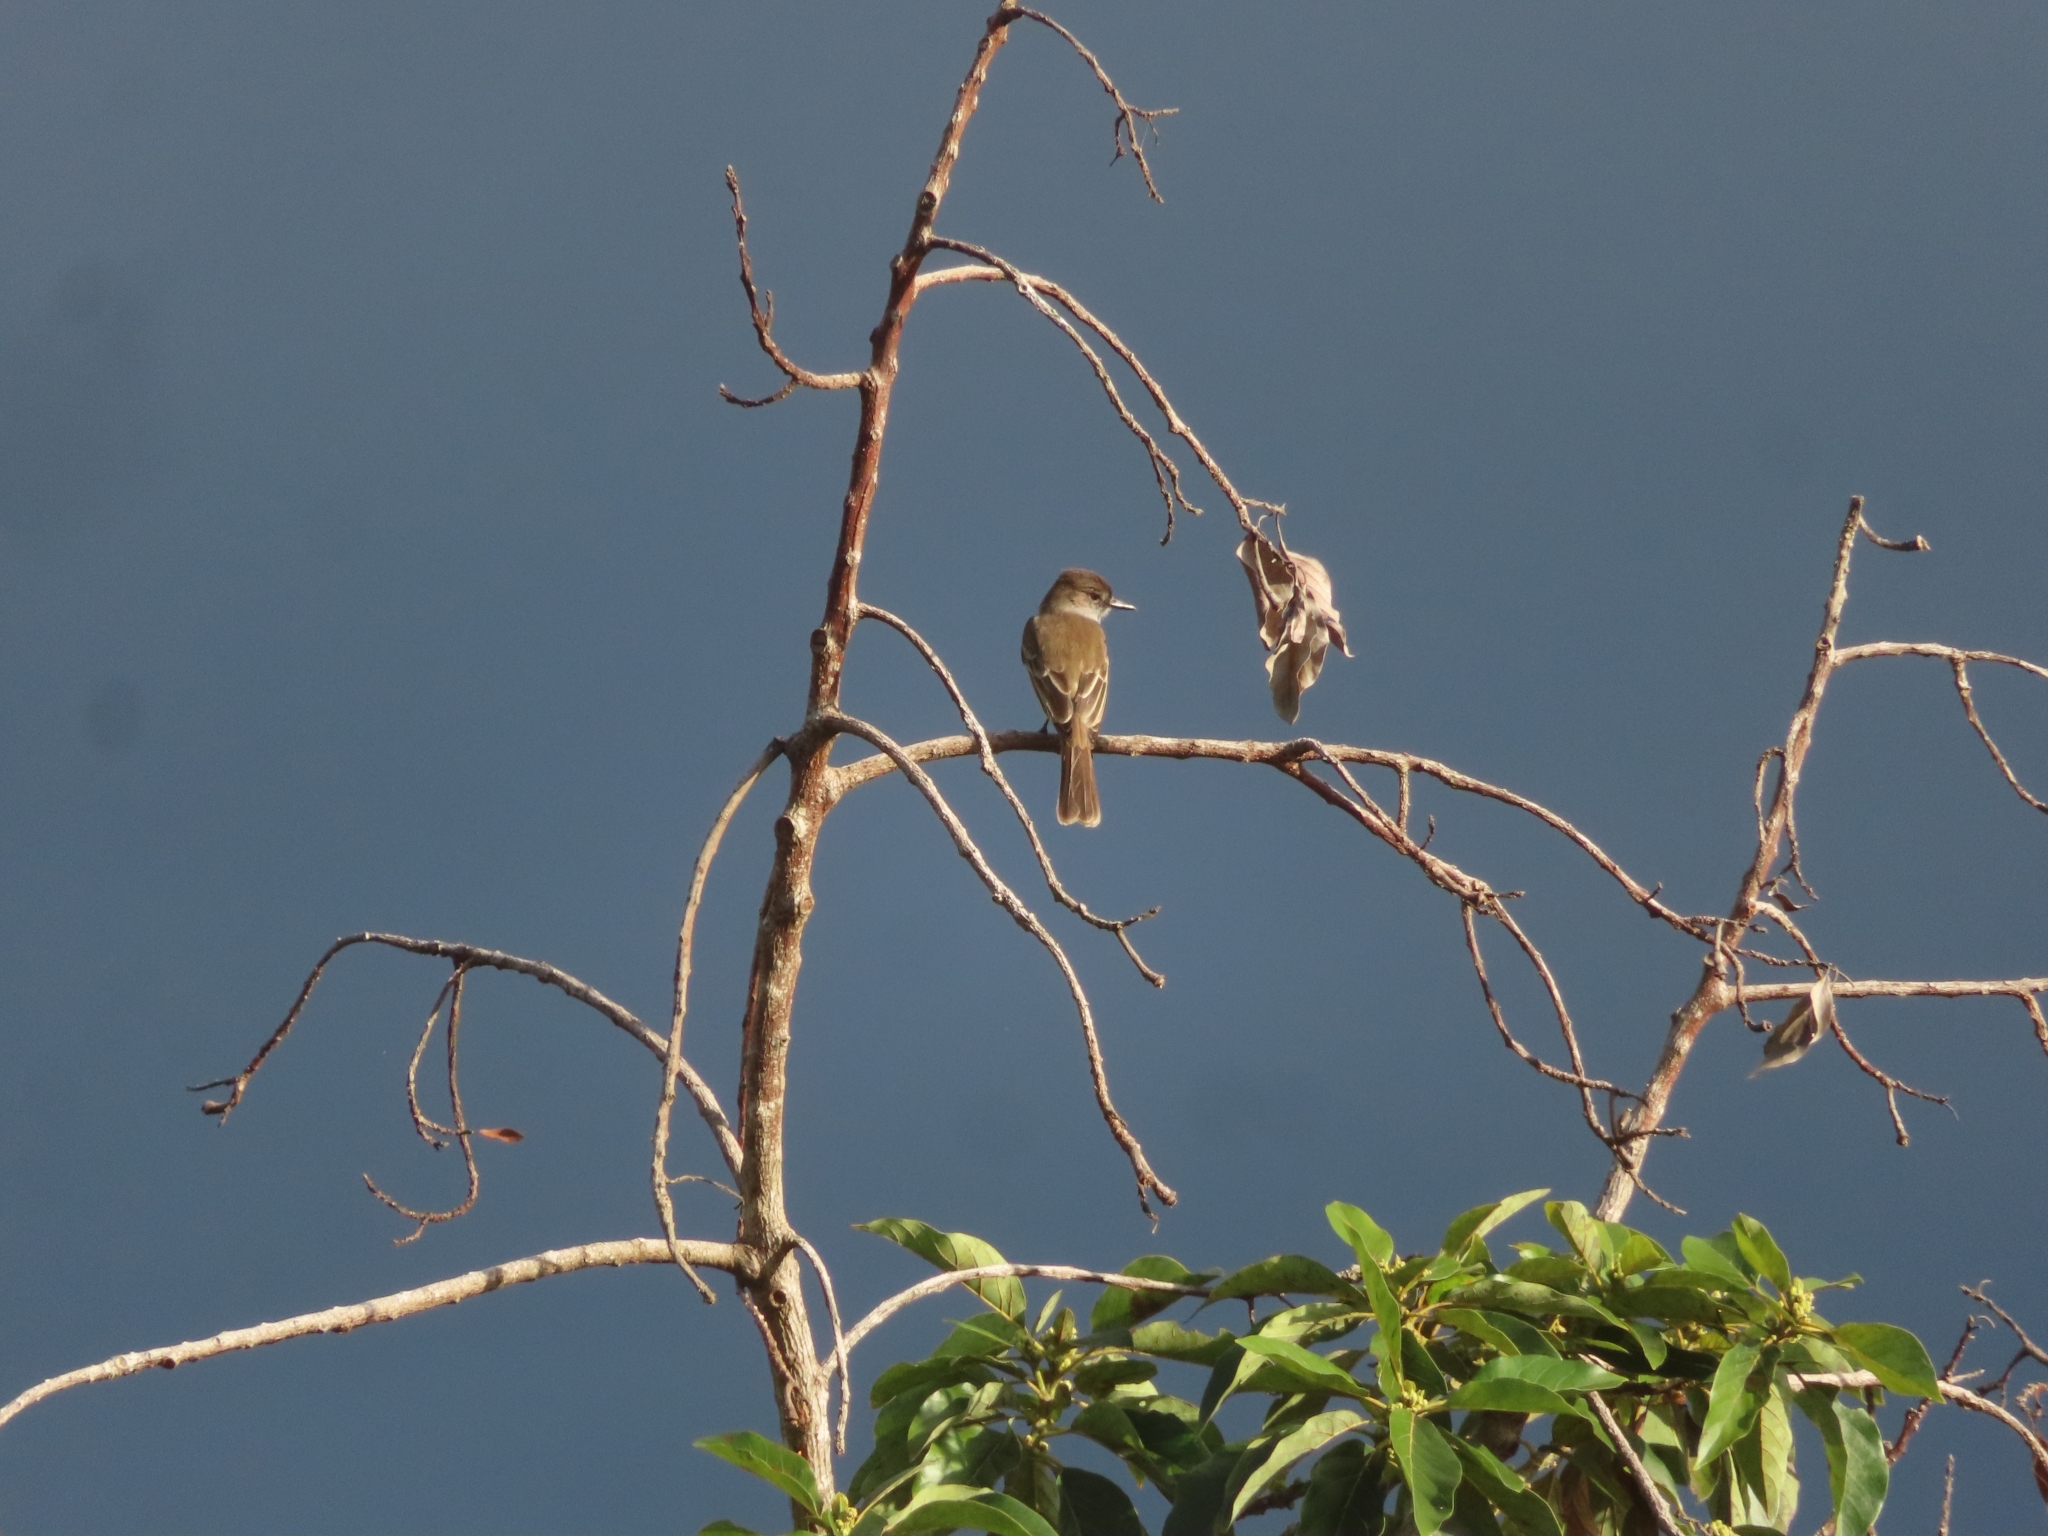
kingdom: Animalia
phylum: Chordata
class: Aves
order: Passeriformes
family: Tyrannidae
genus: Myiarchus
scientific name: Myiarchus antillarum
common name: Puerto rican flycatcher
